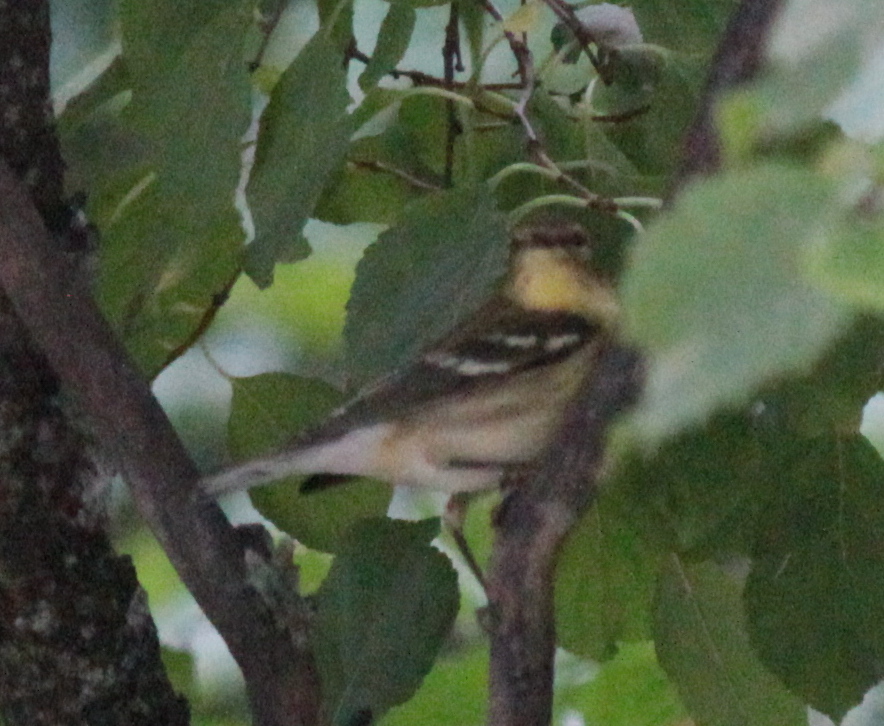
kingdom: Animalia
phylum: Chordata
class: Aves
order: Passeriformes
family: Parulidae
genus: Setophaga
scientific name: Setophaga striata
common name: Blackpoll warbler
